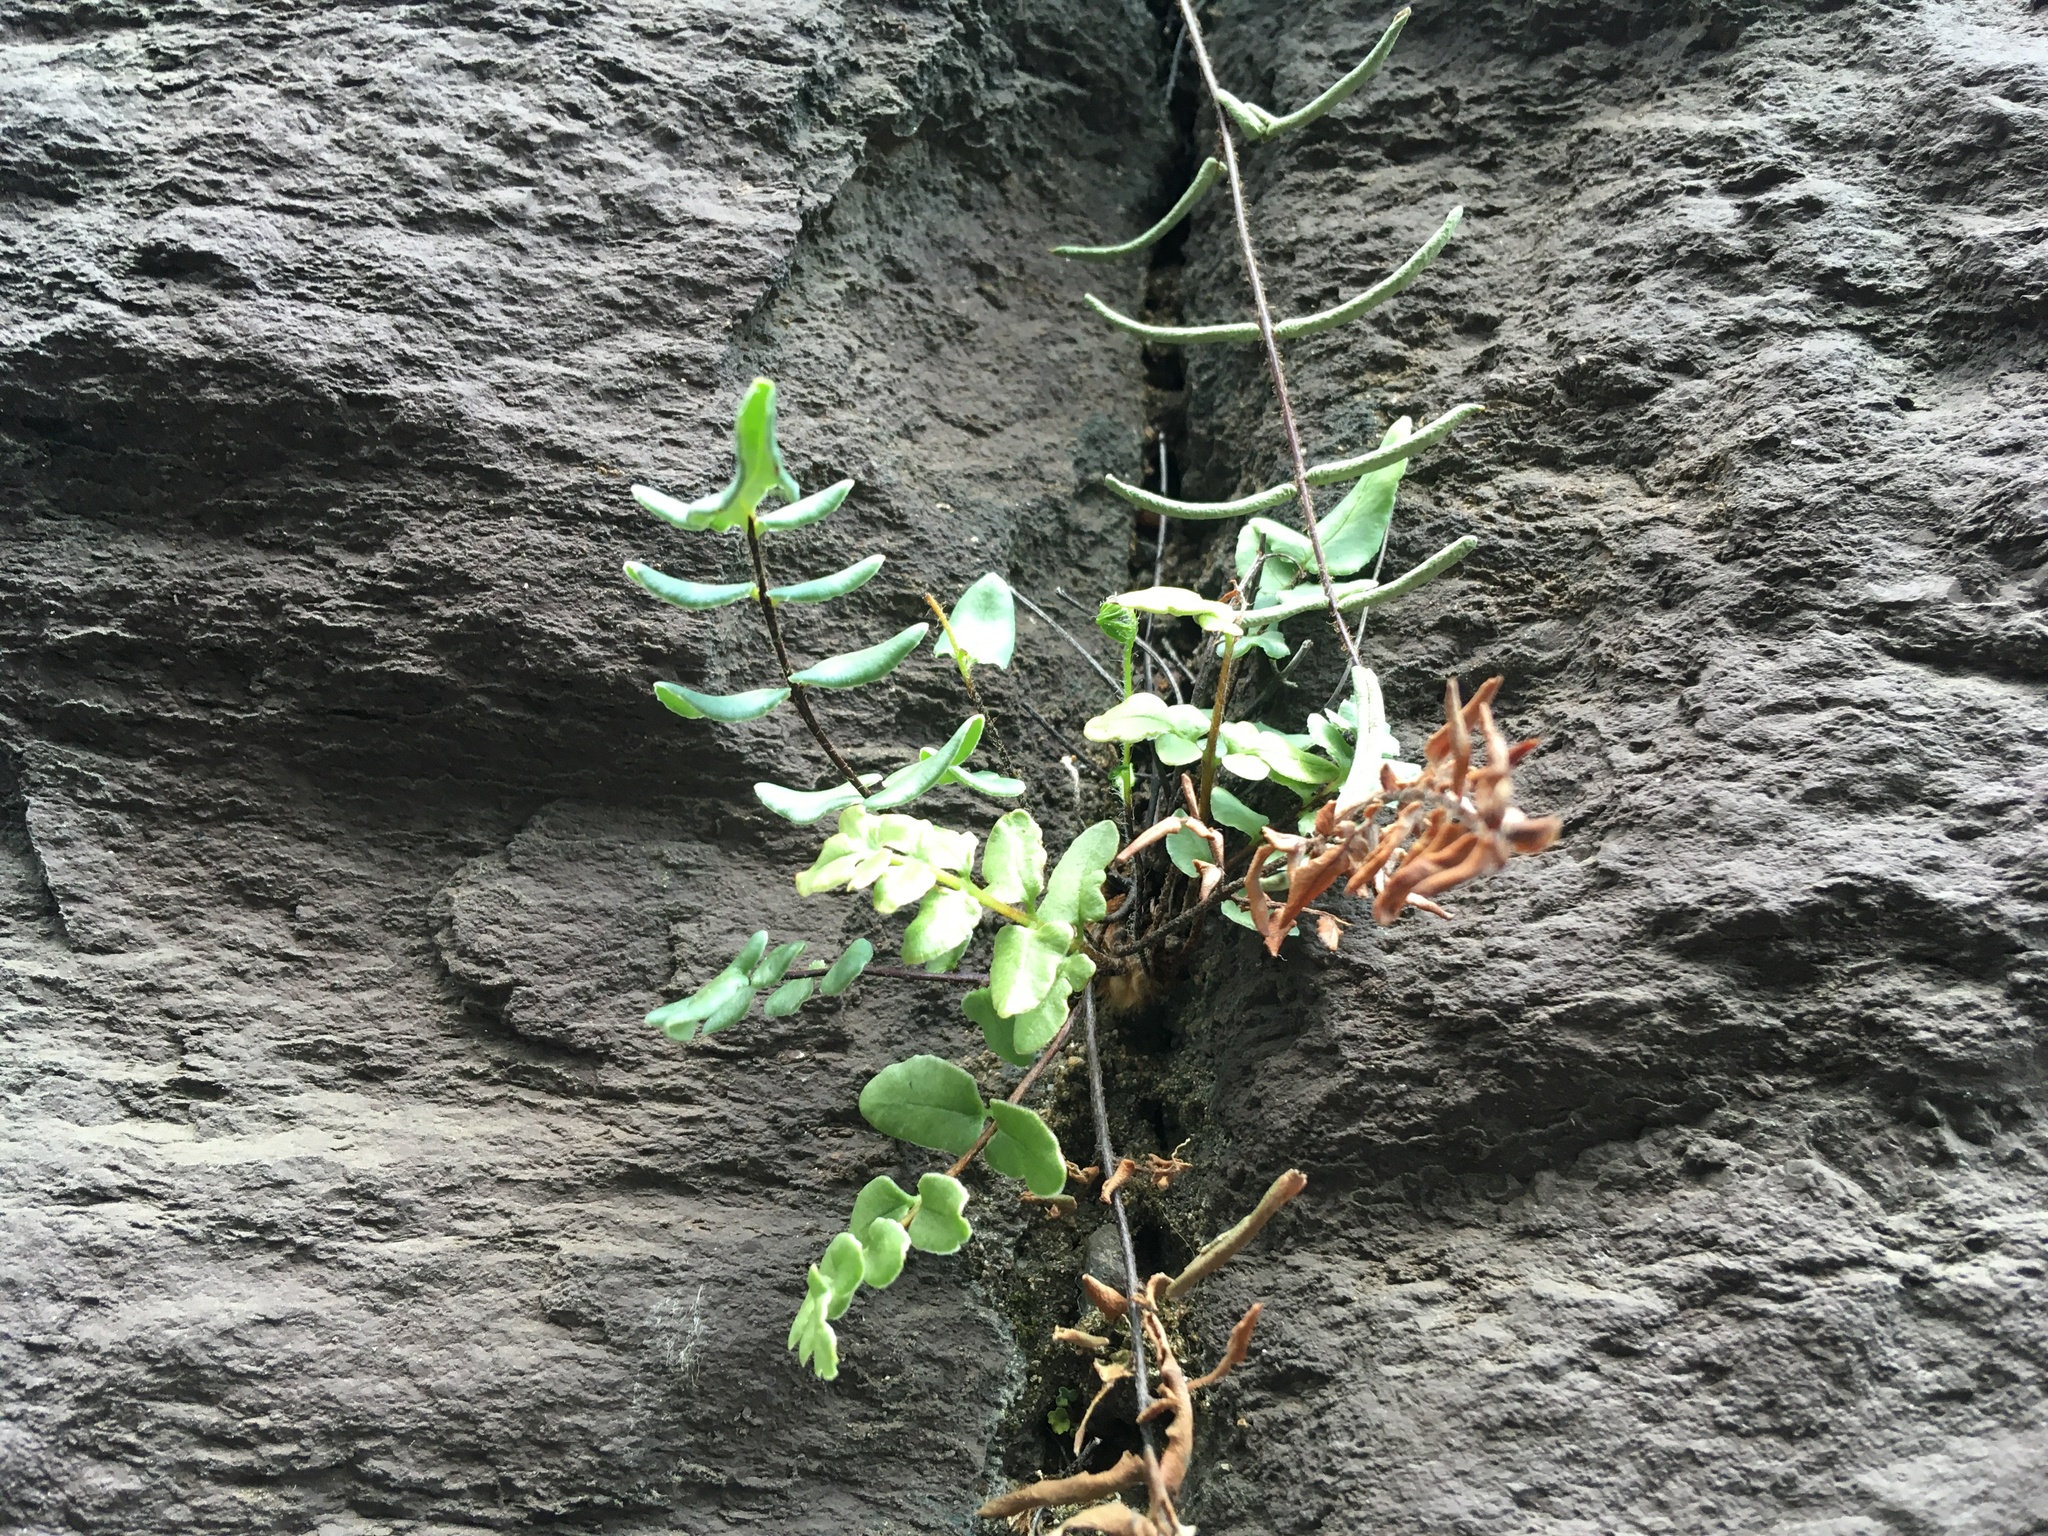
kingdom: Plantae
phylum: Tracheophyta
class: Polypodiopsida
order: Polypodiales
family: Pteridaceae
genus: Pellaea
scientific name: Pellaea atropurpurea
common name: Hairy cliffbrake
